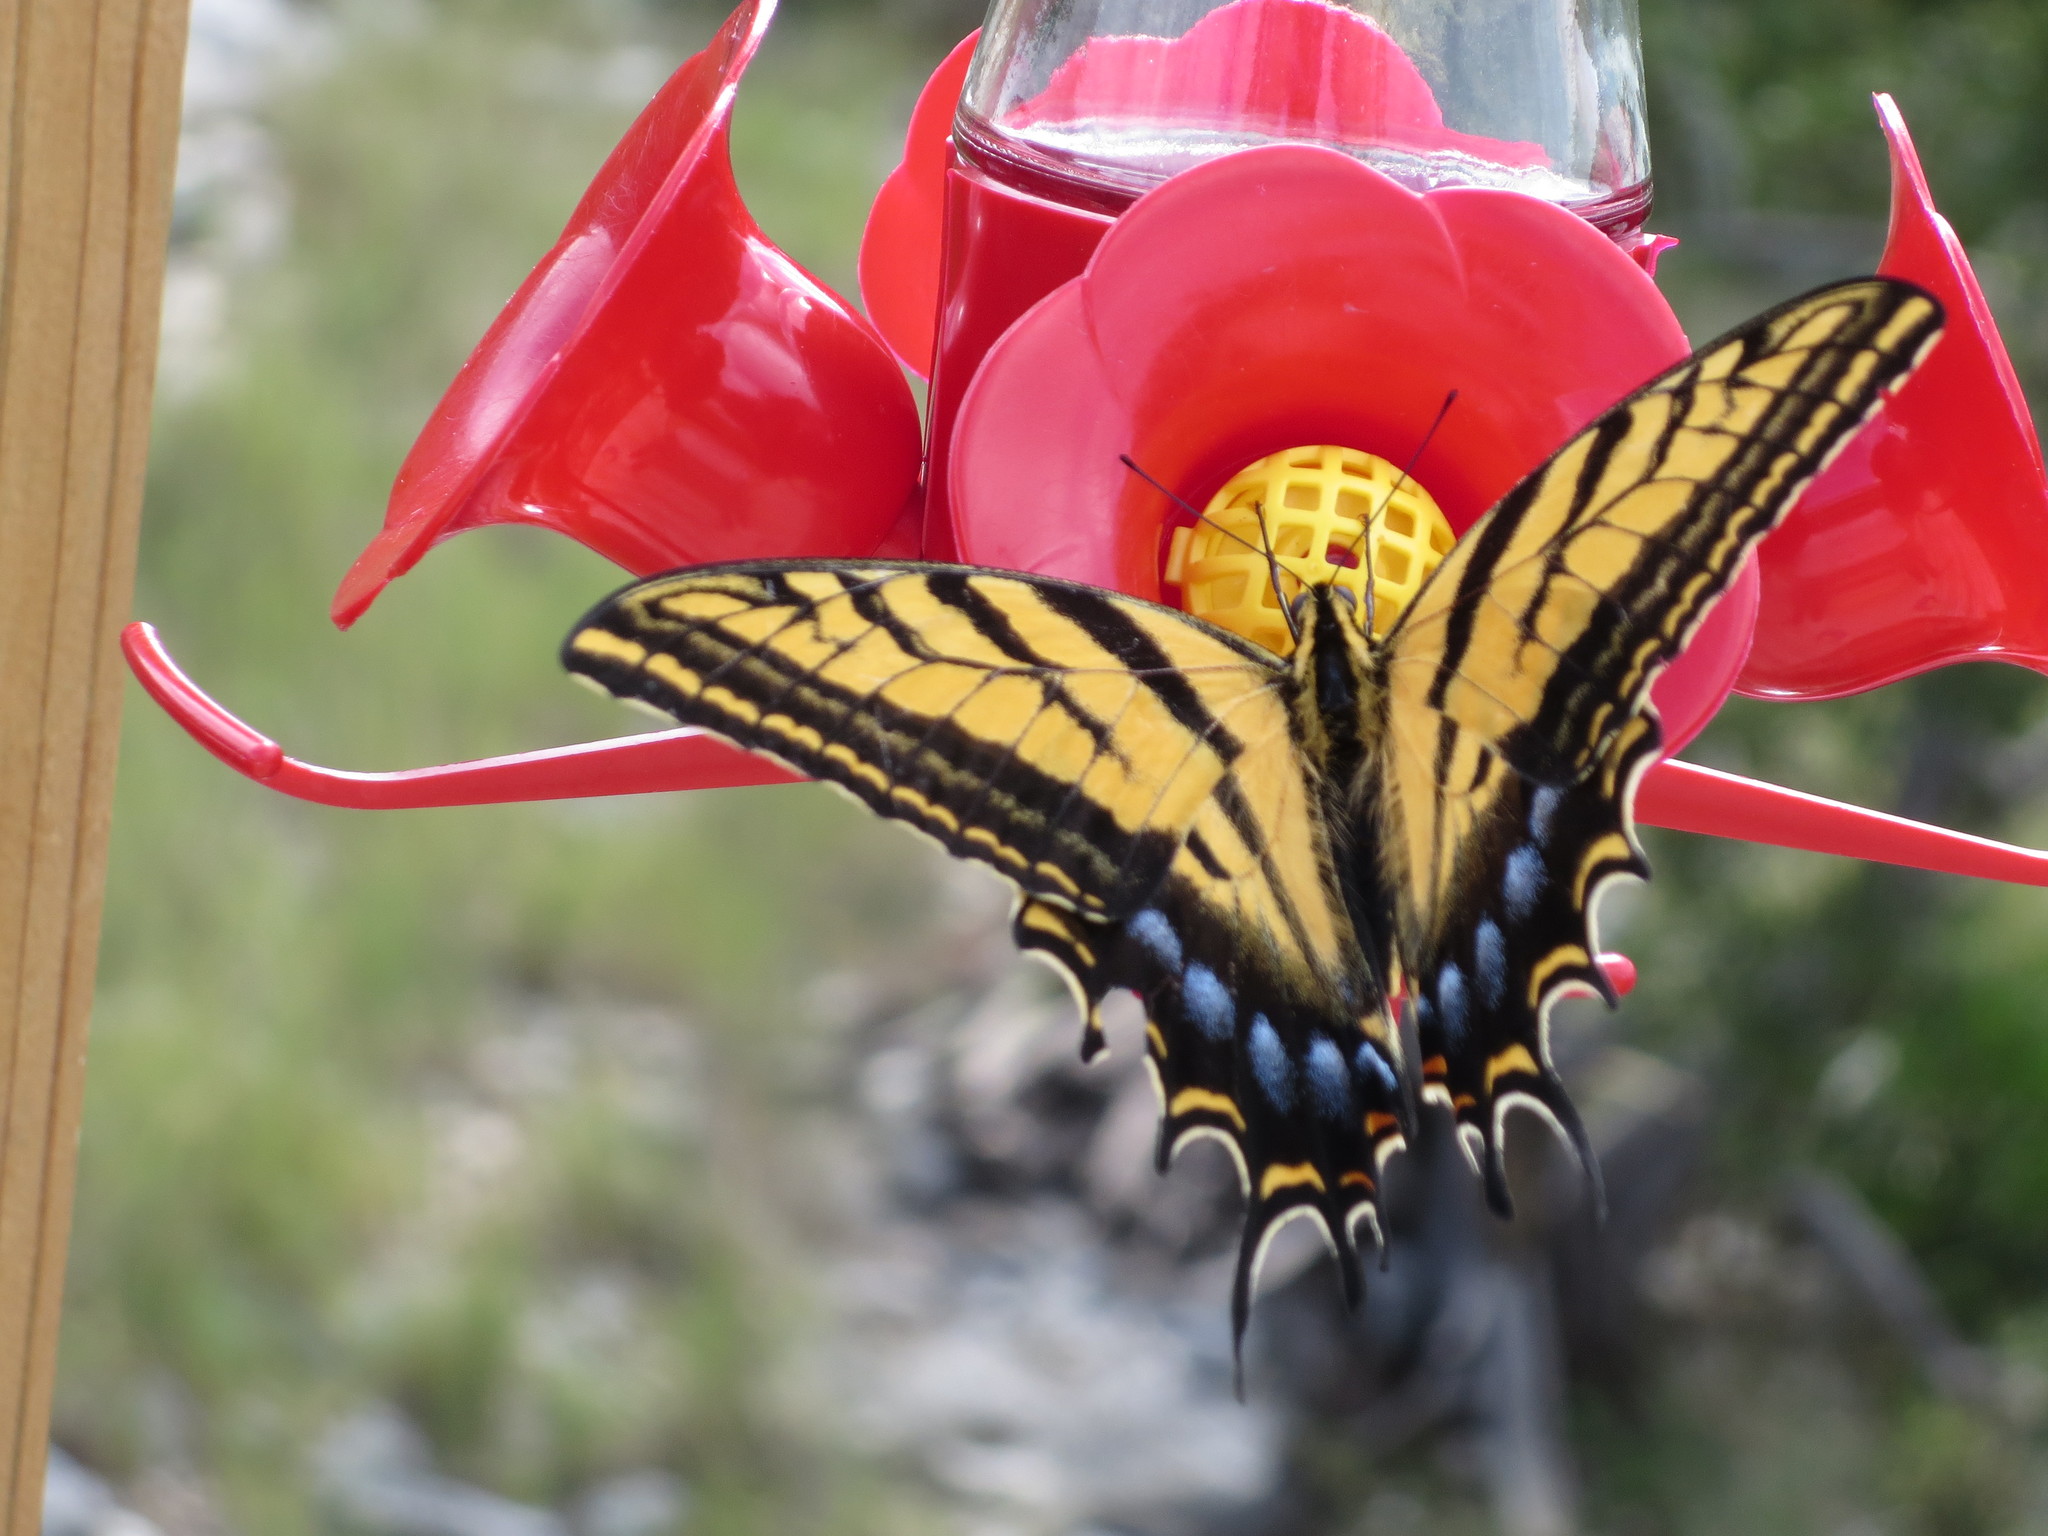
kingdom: Animalia
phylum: Arthropoda
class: Insecta
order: Lepidoptera
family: Papilionidae
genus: Papilio
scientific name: Papilio multicaudata
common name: Two-tailed tiger swallowtail
